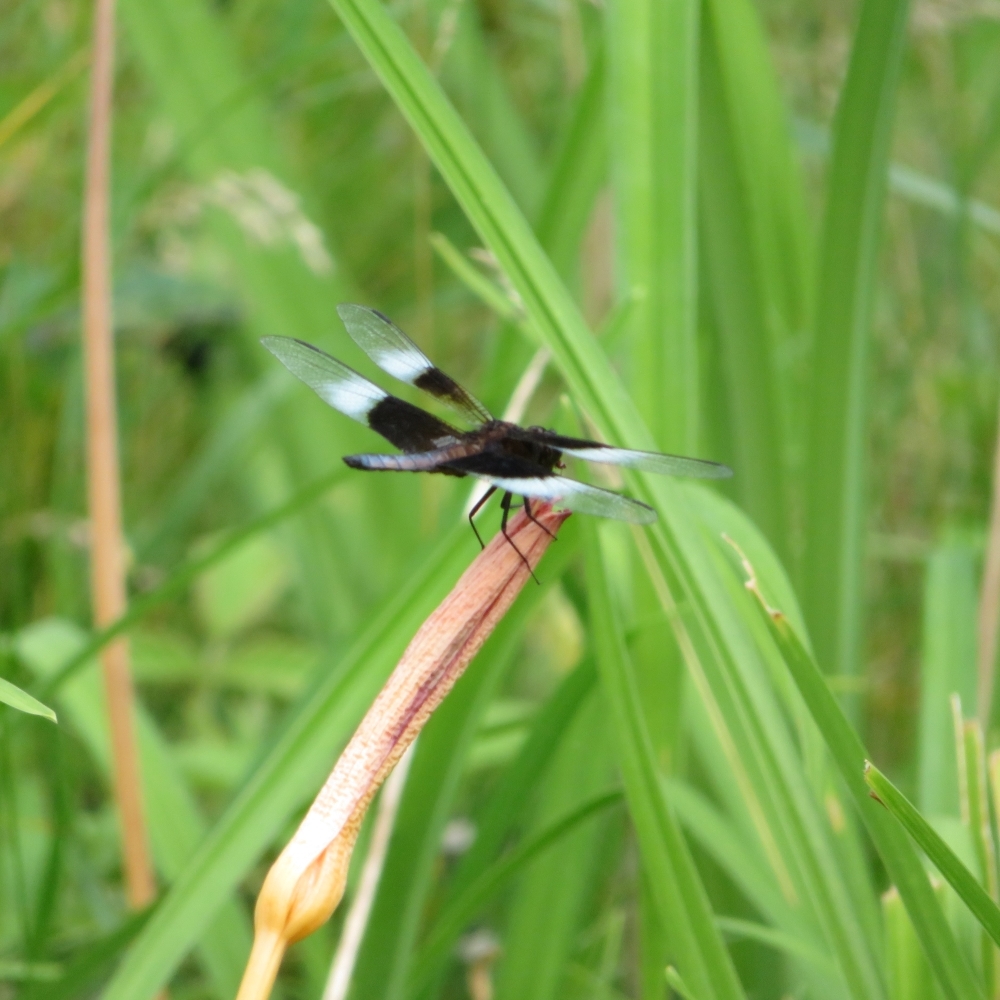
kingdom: Animalia
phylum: Arthropoda
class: Insecta
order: Odonata
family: Libellulidae
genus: Libellula
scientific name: Libellula luctuosa
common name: Widow skimmer
